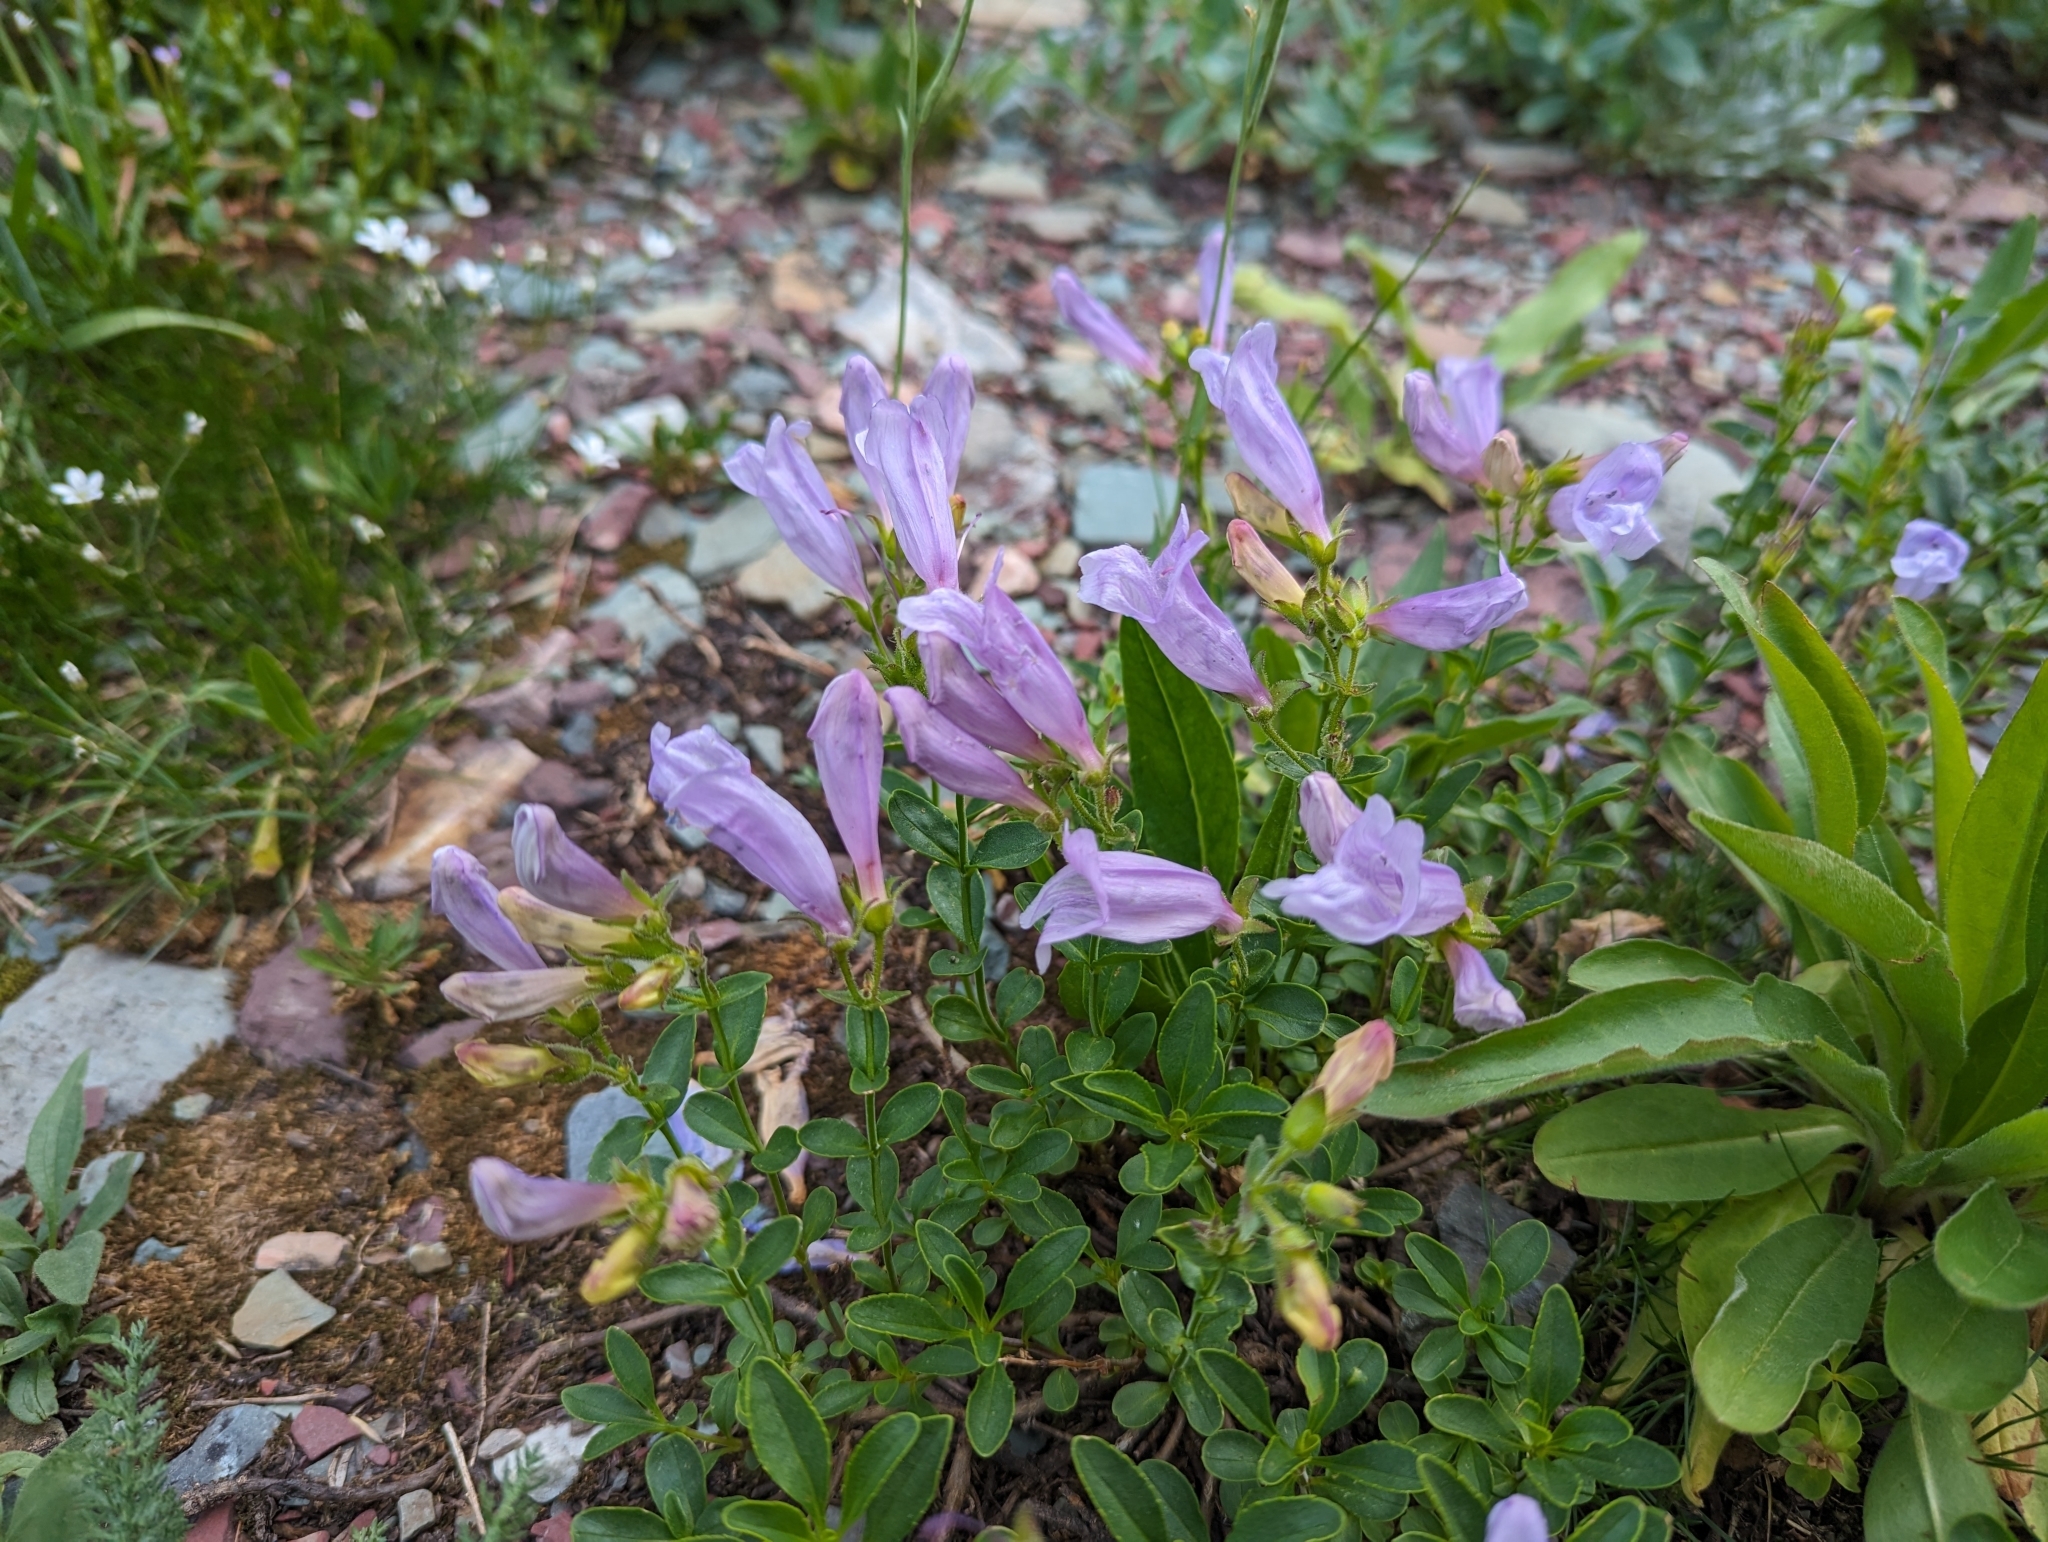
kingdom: Plantae
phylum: Tracheophyta
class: Magnoliopsida
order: Lamiales
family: Plantaginaceae
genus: Penstemon
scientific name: Penstemon ellipticus
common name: Alpine beardtongue
